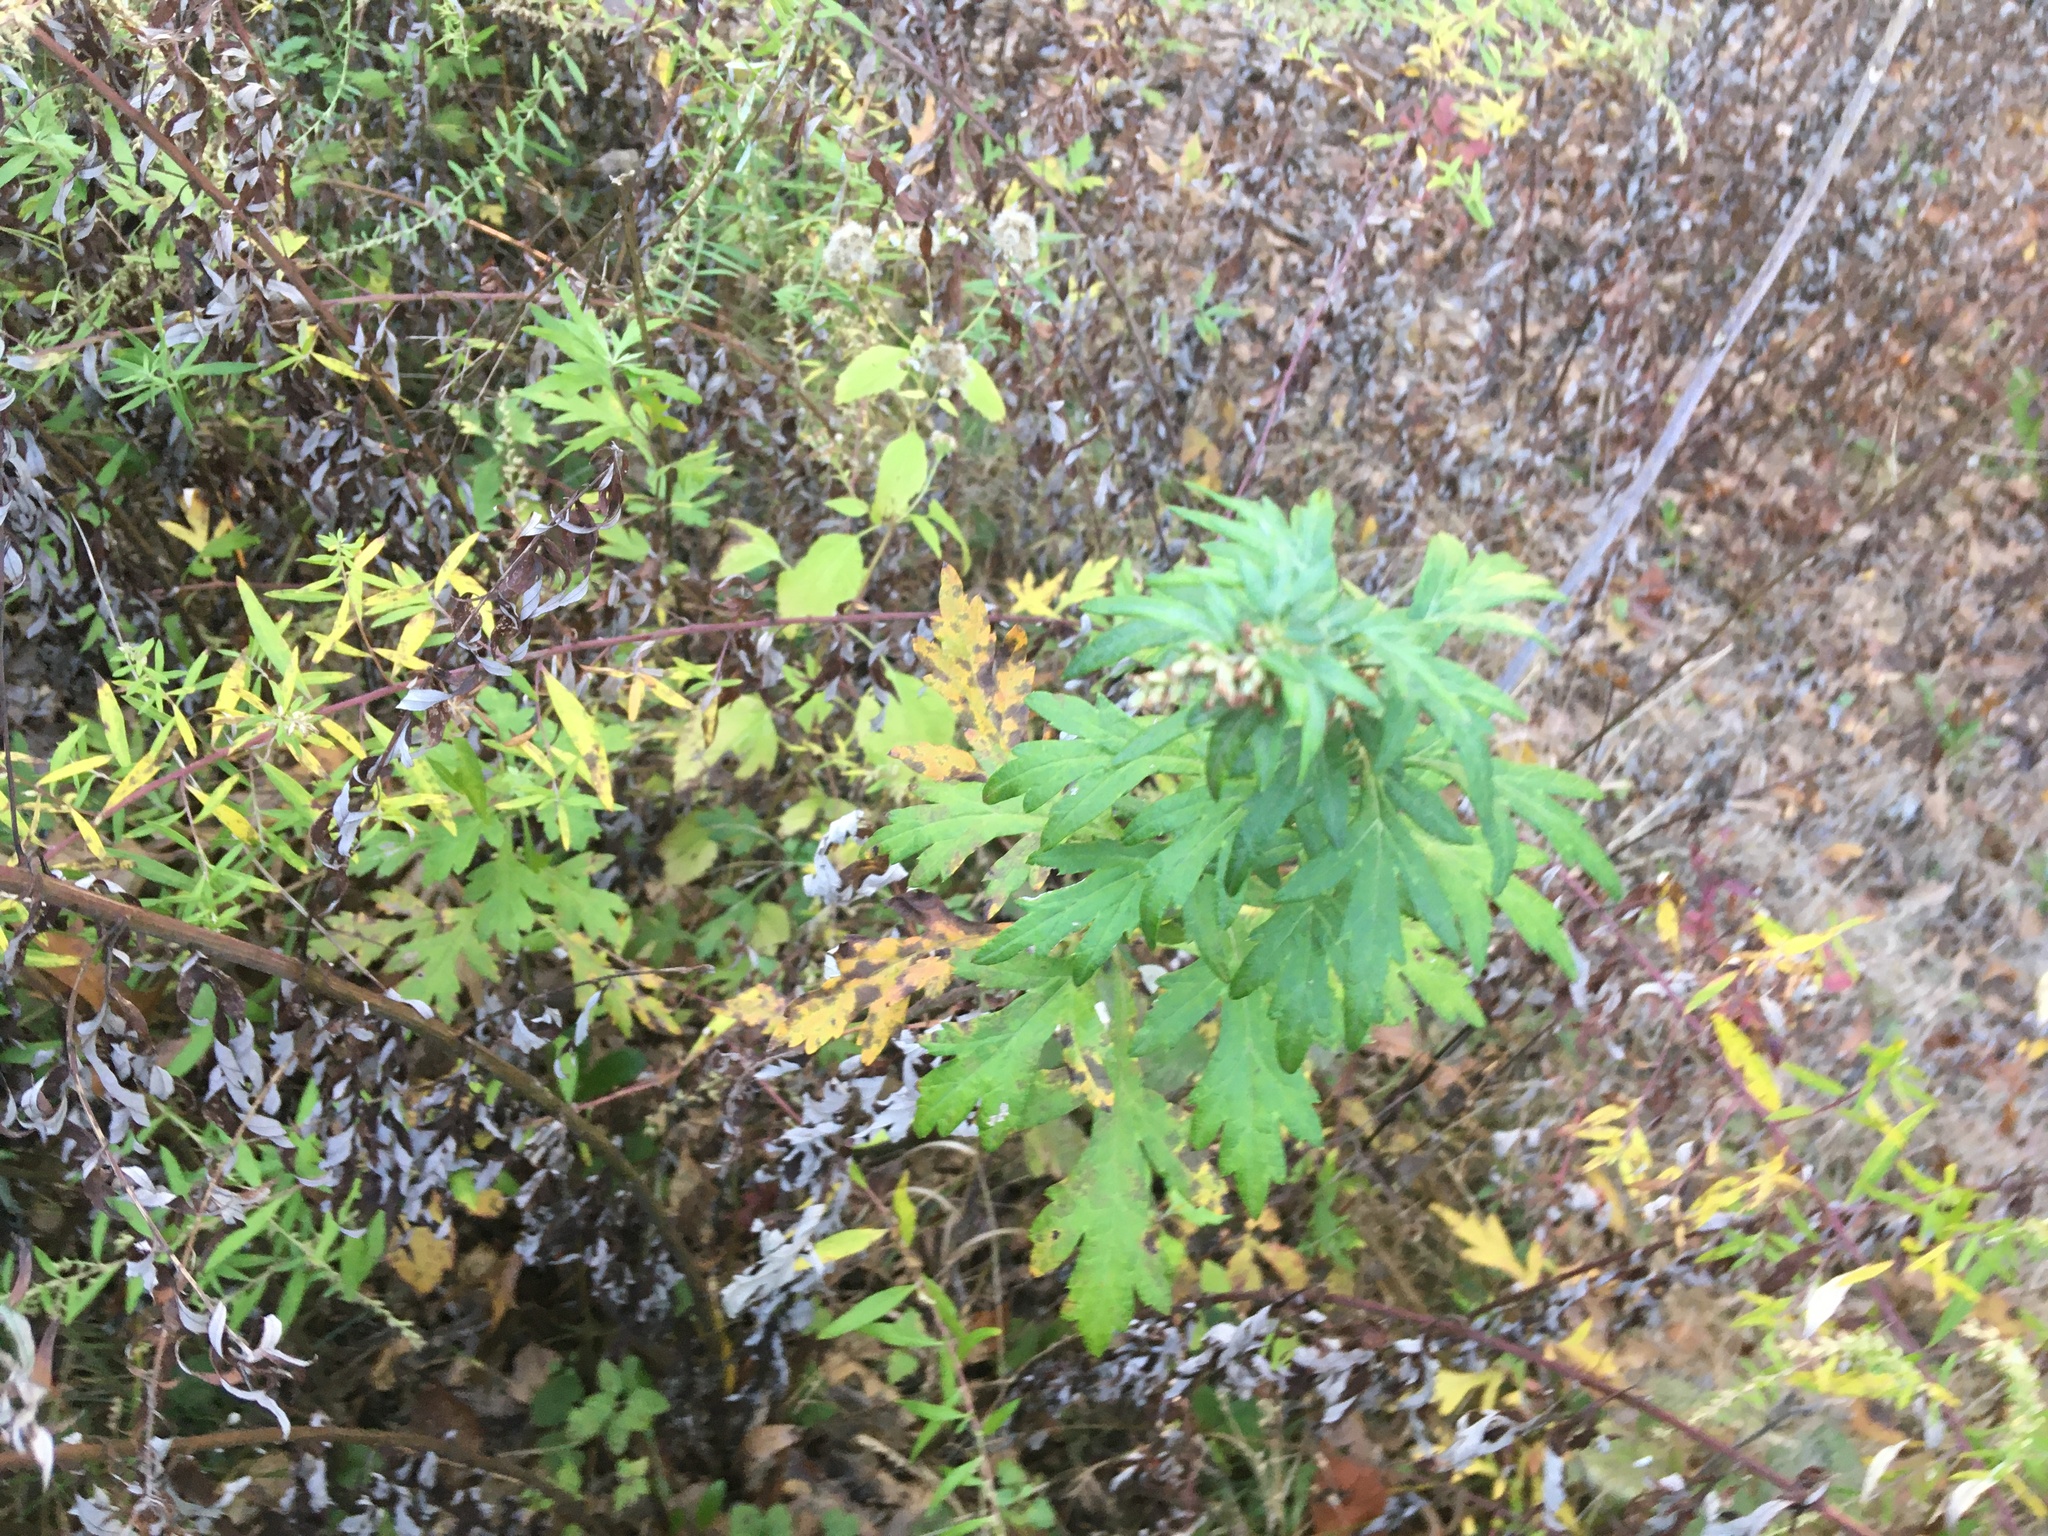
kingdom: Plantae
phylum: Tracheophyta
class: Magnoliopsida
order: Asterales
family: Asteraceae
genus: Artemisia
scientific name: Artemisia vulgaris
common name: Mugwort
